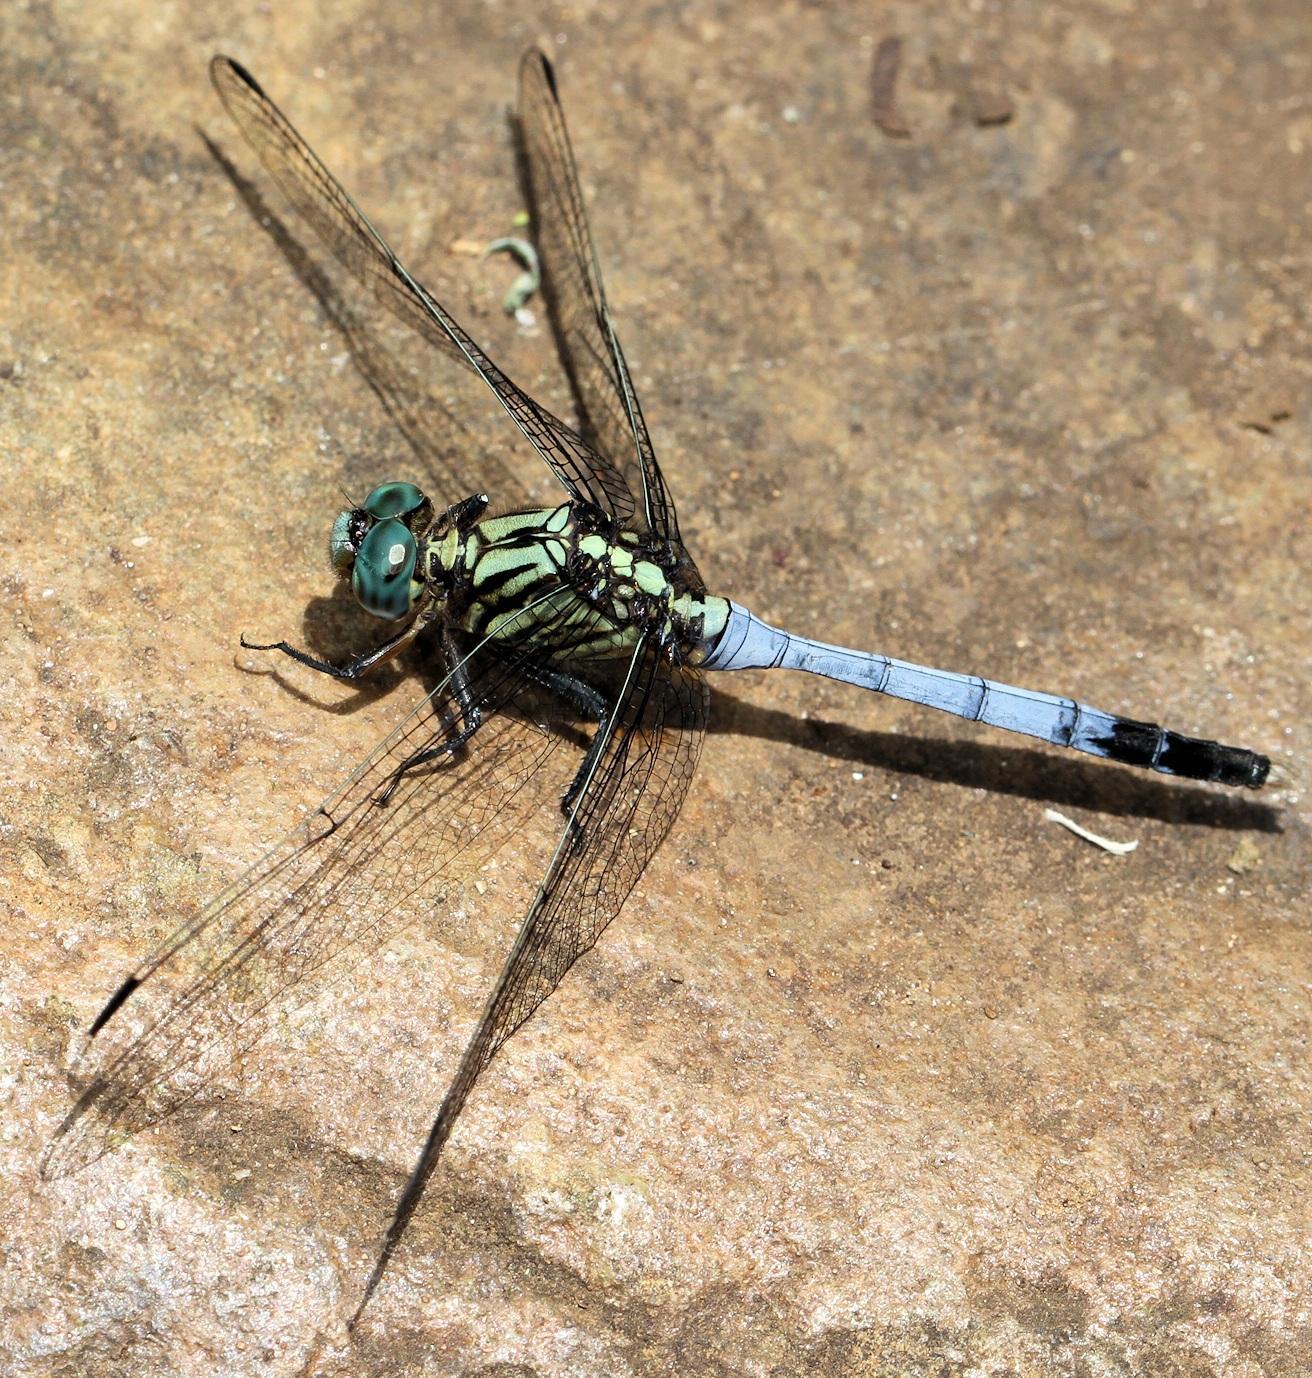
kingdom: Animalia
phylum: Arthropoda
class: Insecta
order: Odonata
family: Libellulidae
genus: Orthetrum
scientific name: Orthetrum julia
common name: Julia skimmer
